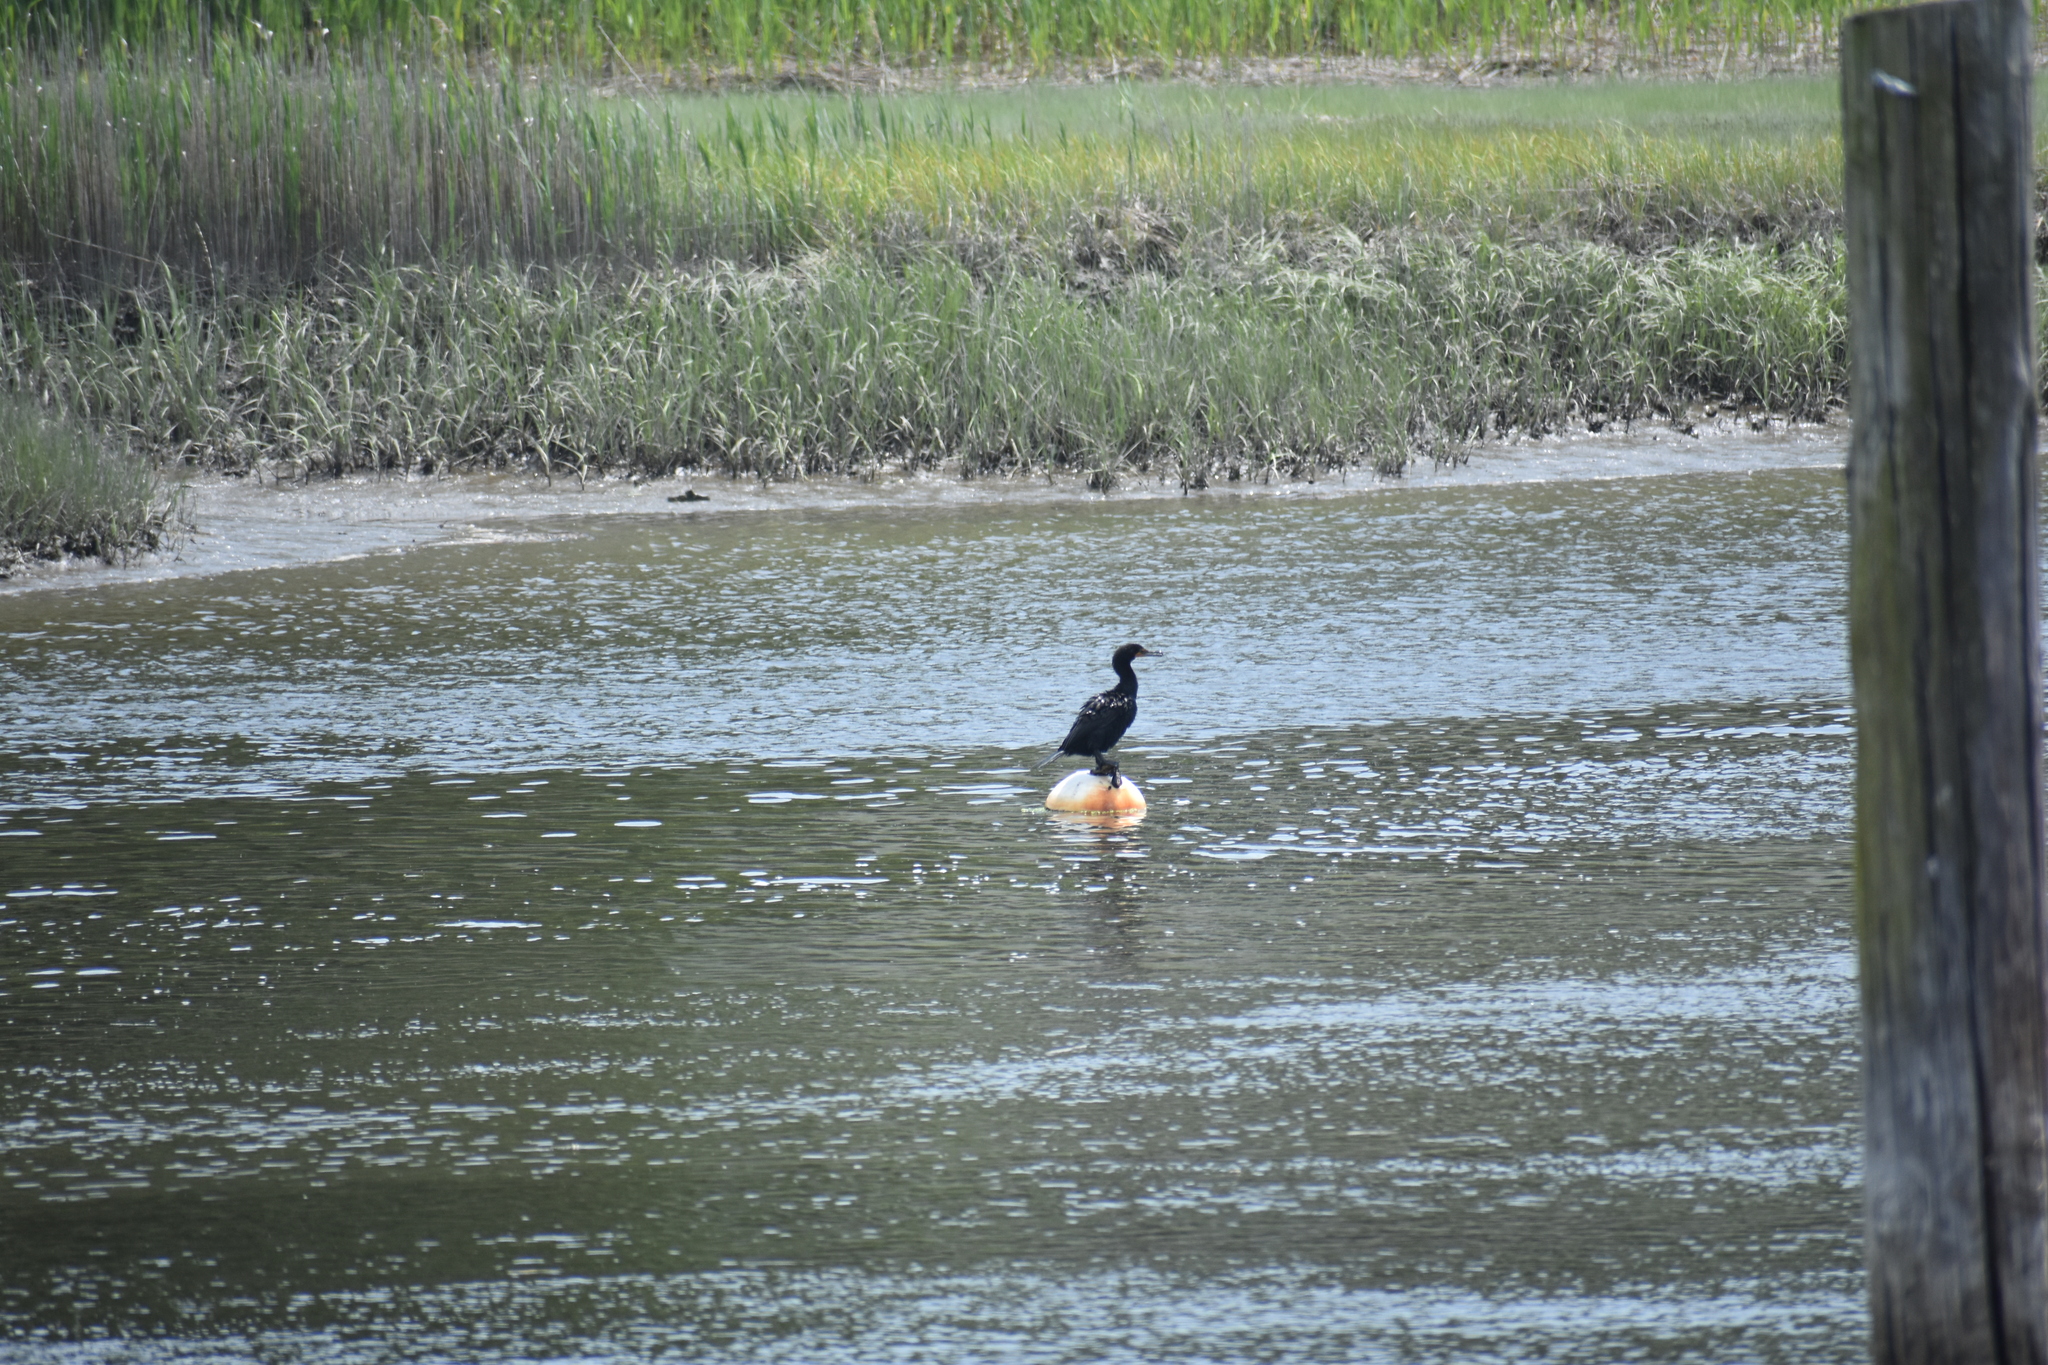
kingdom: Animalia
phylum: Chordata
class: Aves
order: Suliformes
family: Phalacrocoracidae
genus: Phalacrocorax
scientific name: Phalacrocorax auritus
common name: Double-crested cormorant
